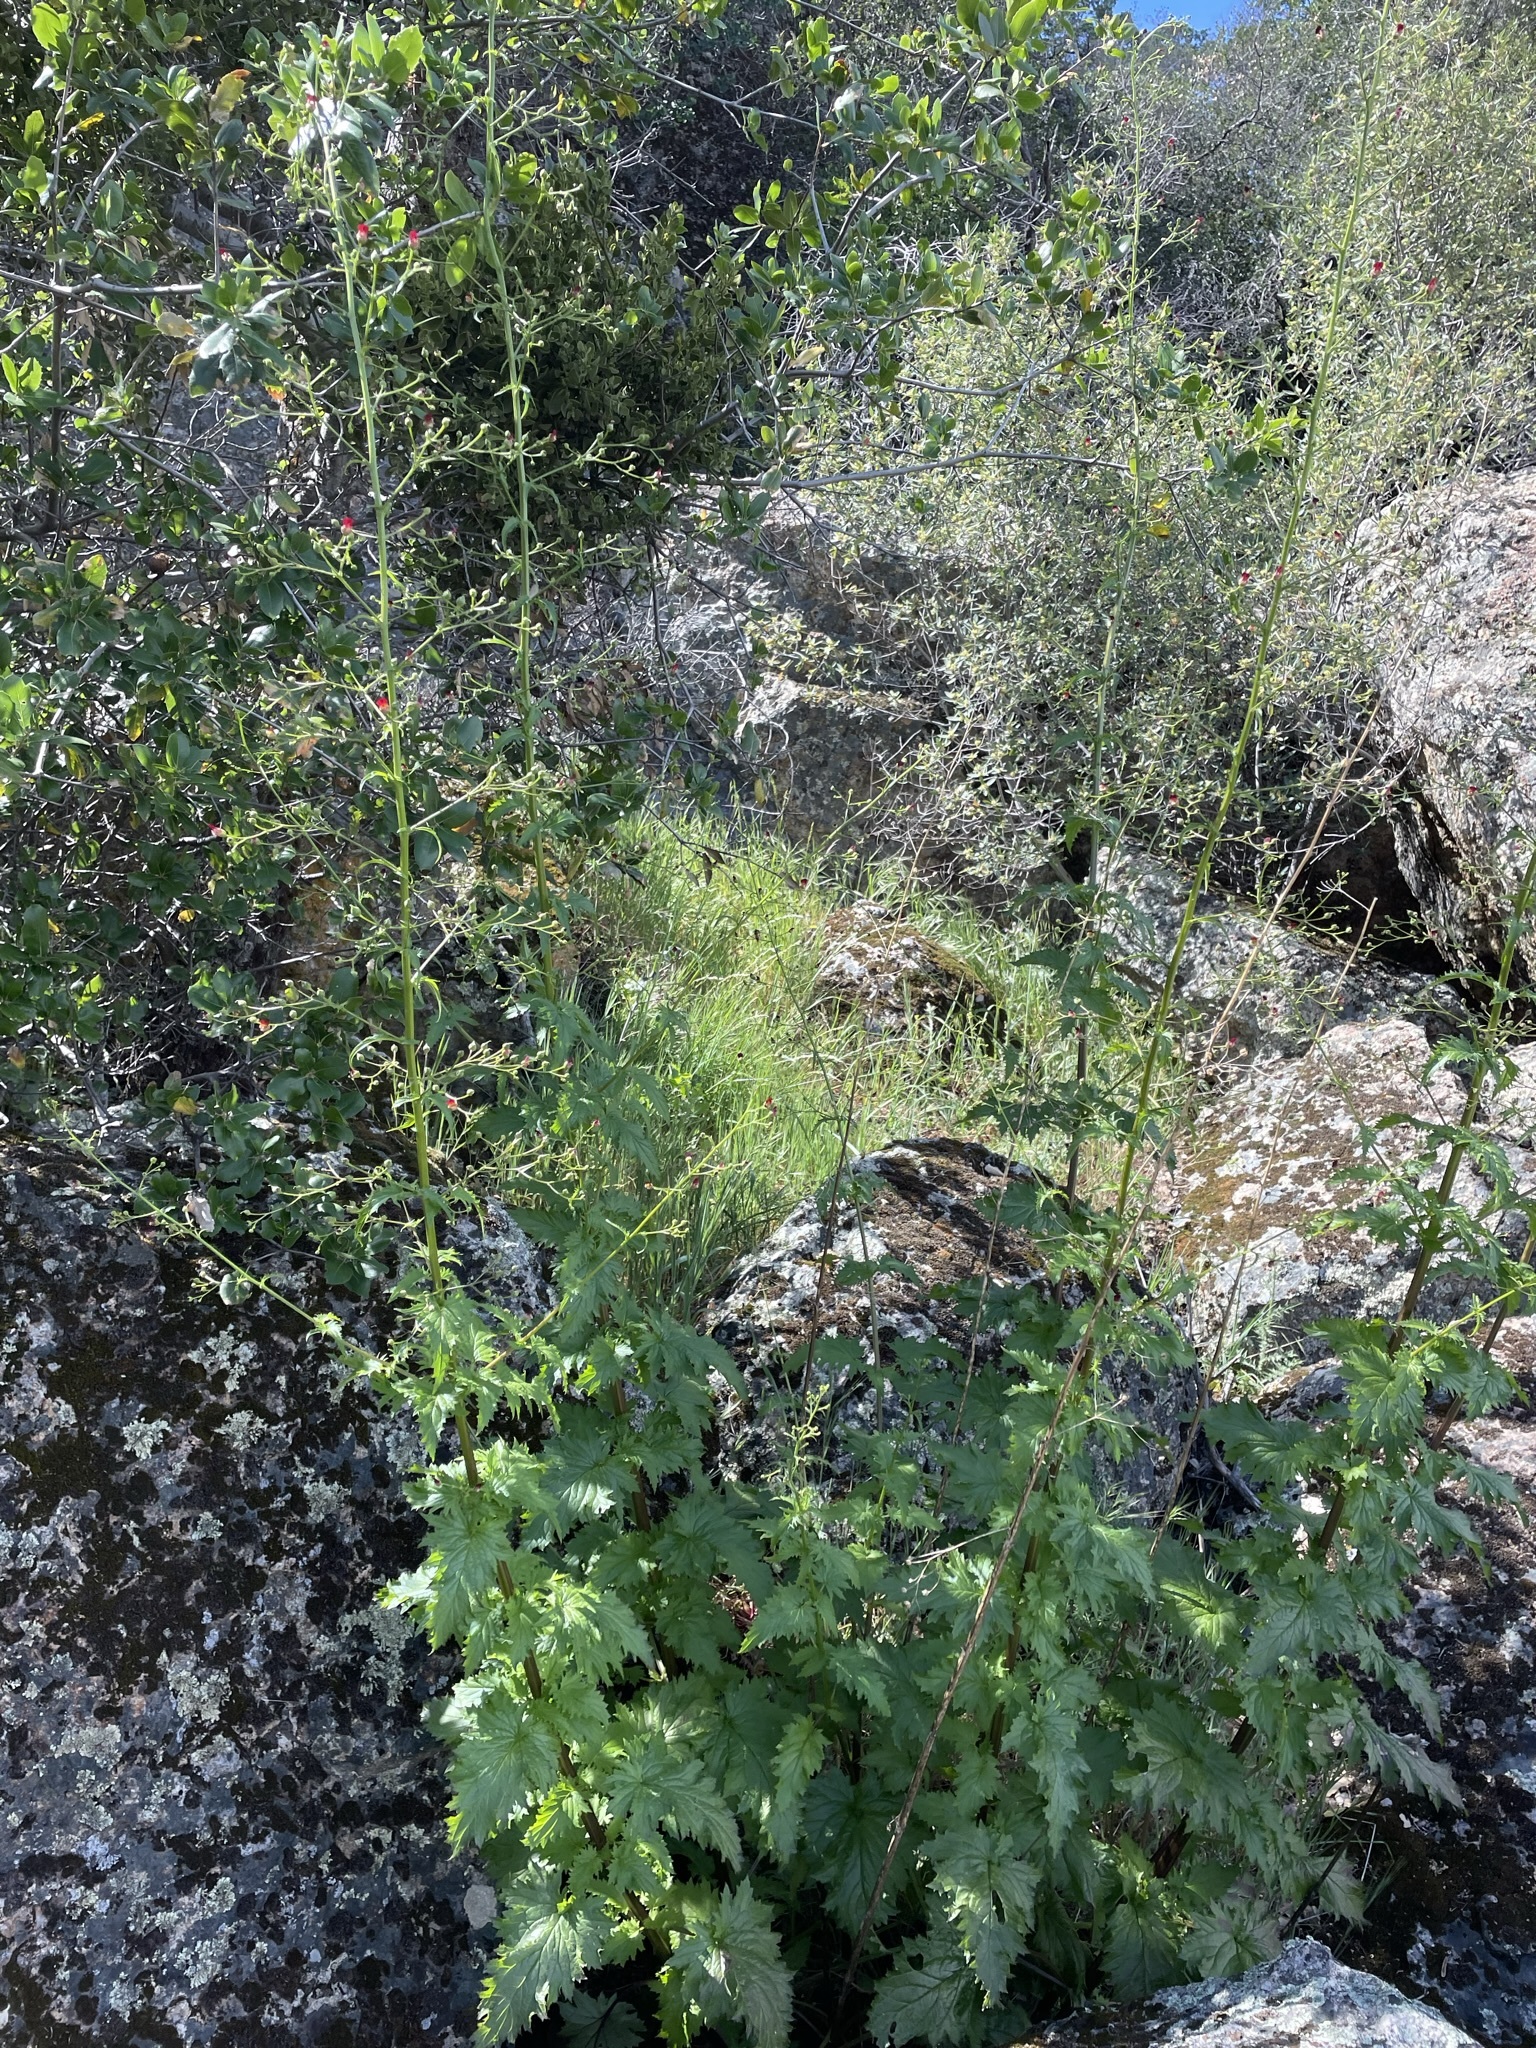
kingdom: Plantae
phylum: Tracheophyta
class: Magnoliopsida
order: Lamiales
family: Scrophulariaceae
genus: Scrophularia
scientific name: Scrophularia californica
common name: California figwort
